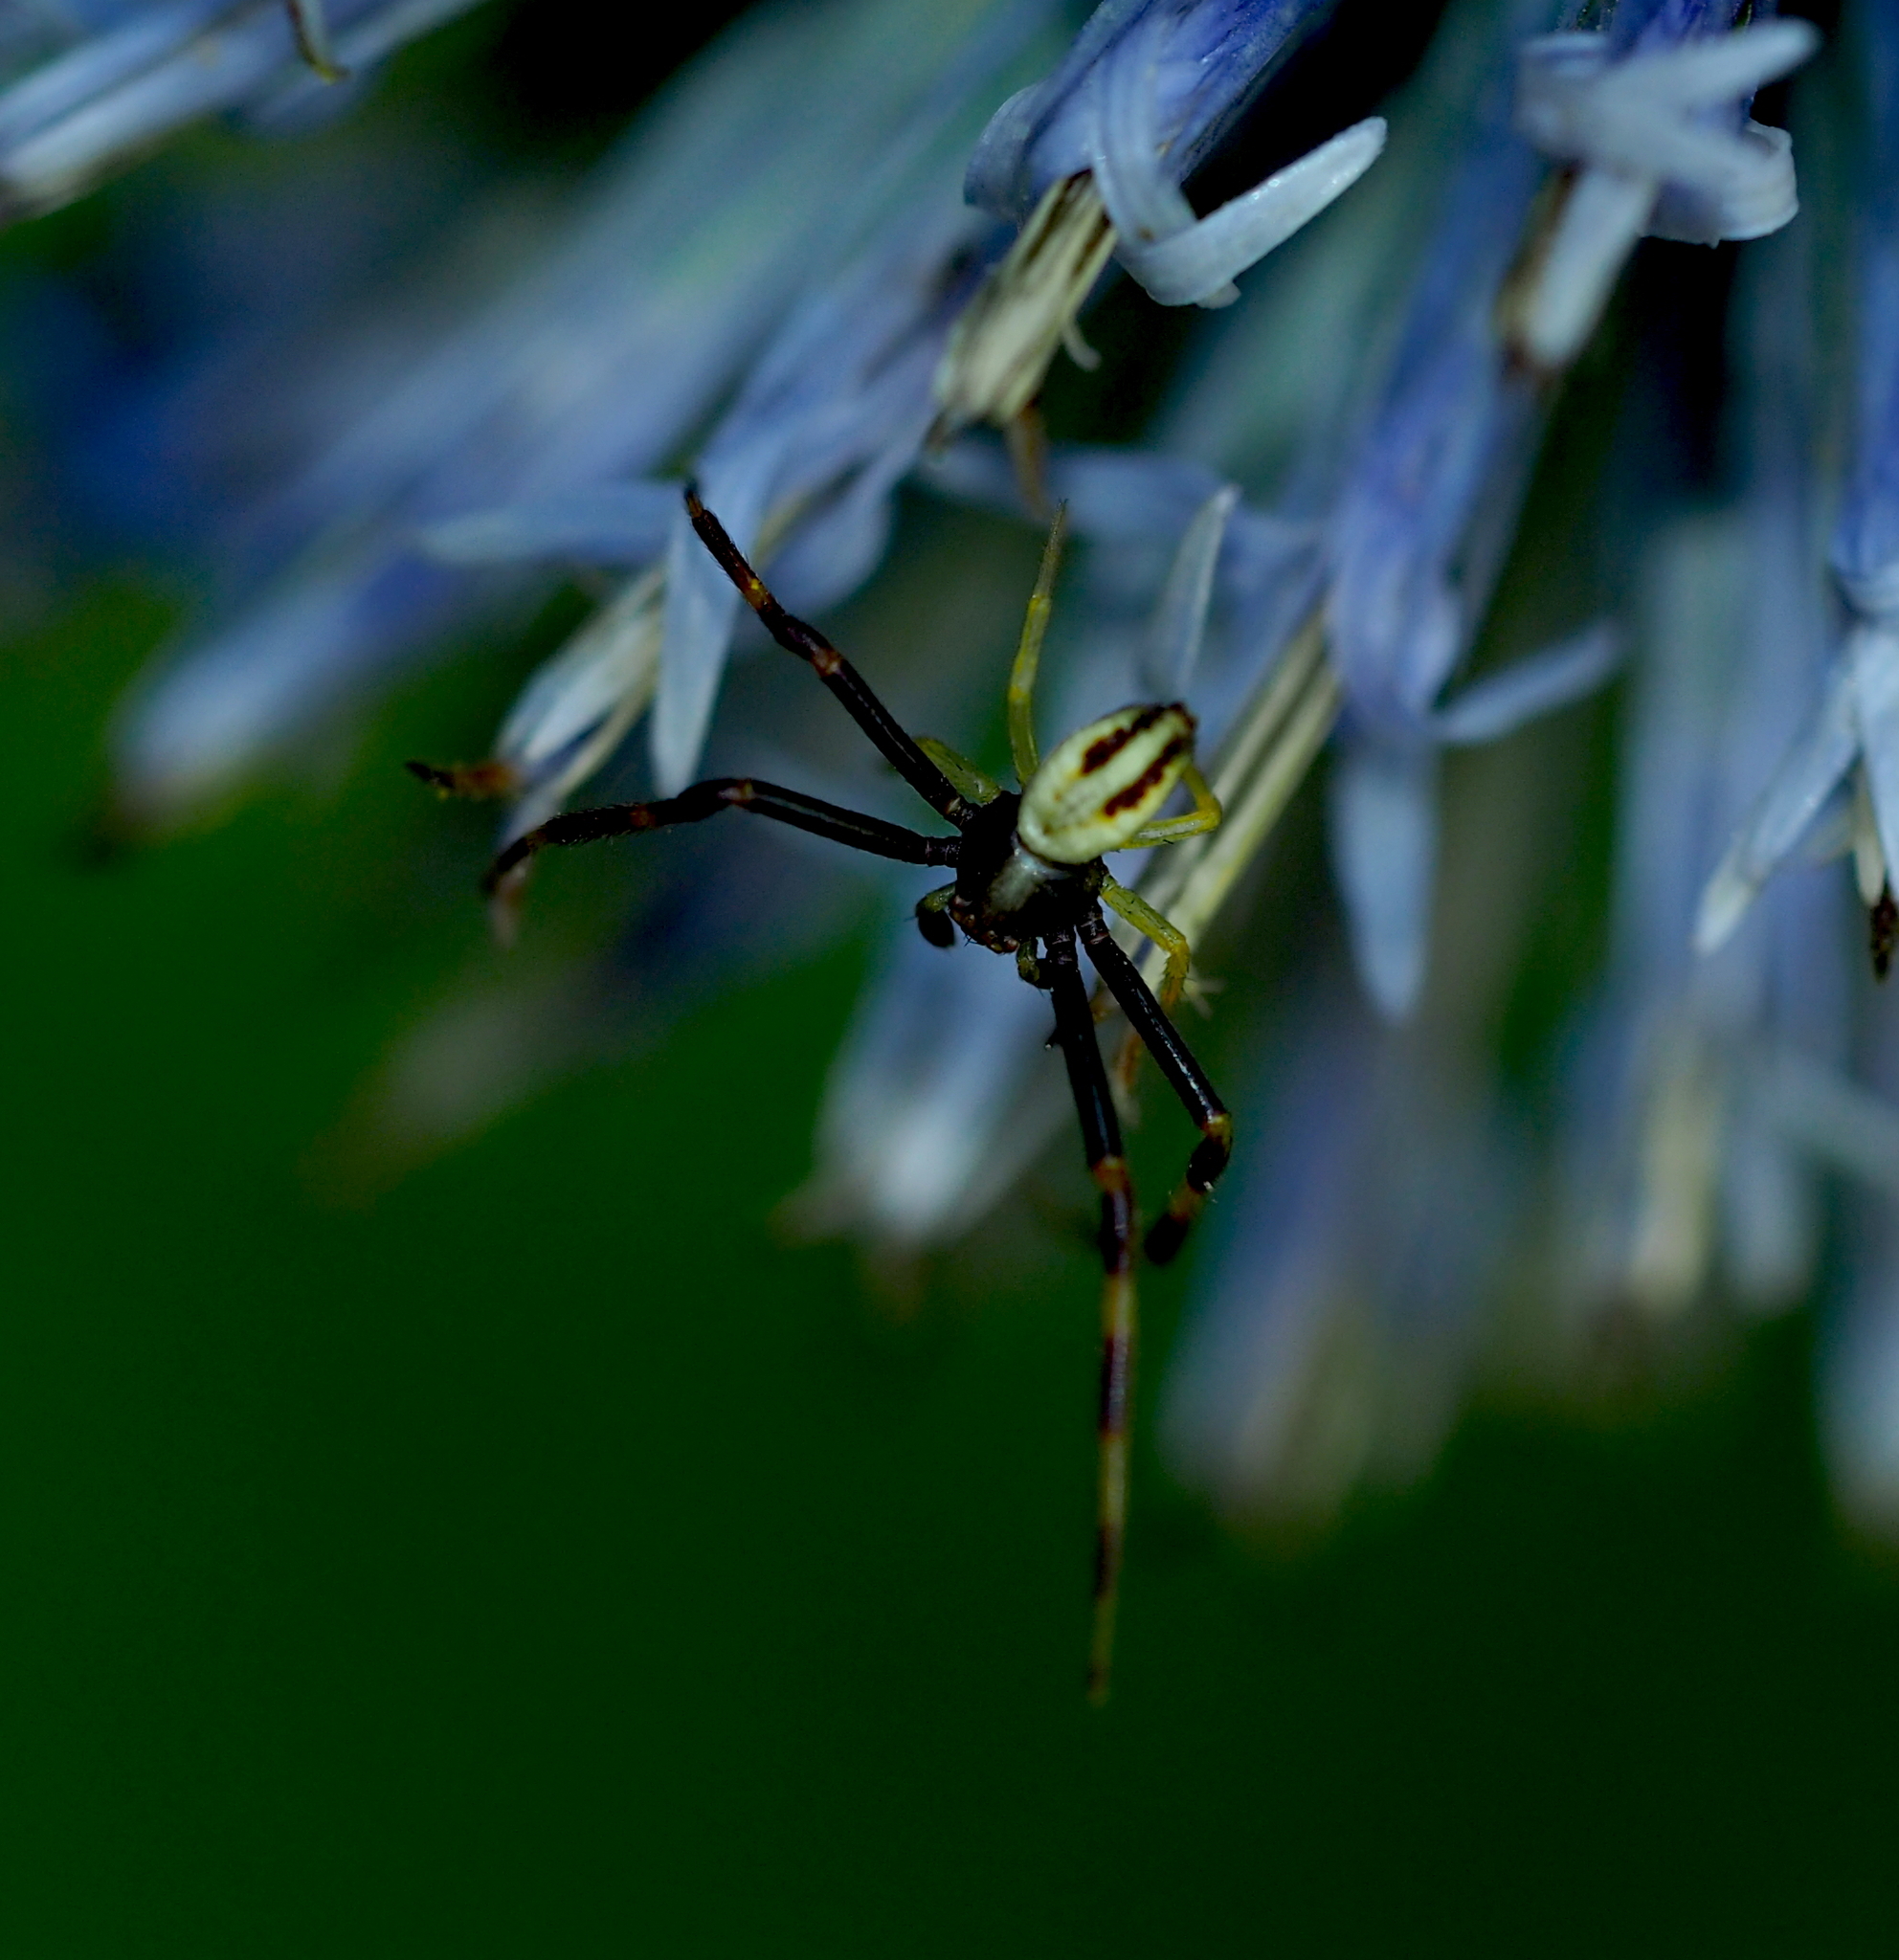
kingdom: Animalia
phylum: Arthropoda
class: Arachnida
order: Araneae
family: Thomisidae
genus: Misumena
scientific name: Misumena vatia
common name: Goldenrod crab spider
